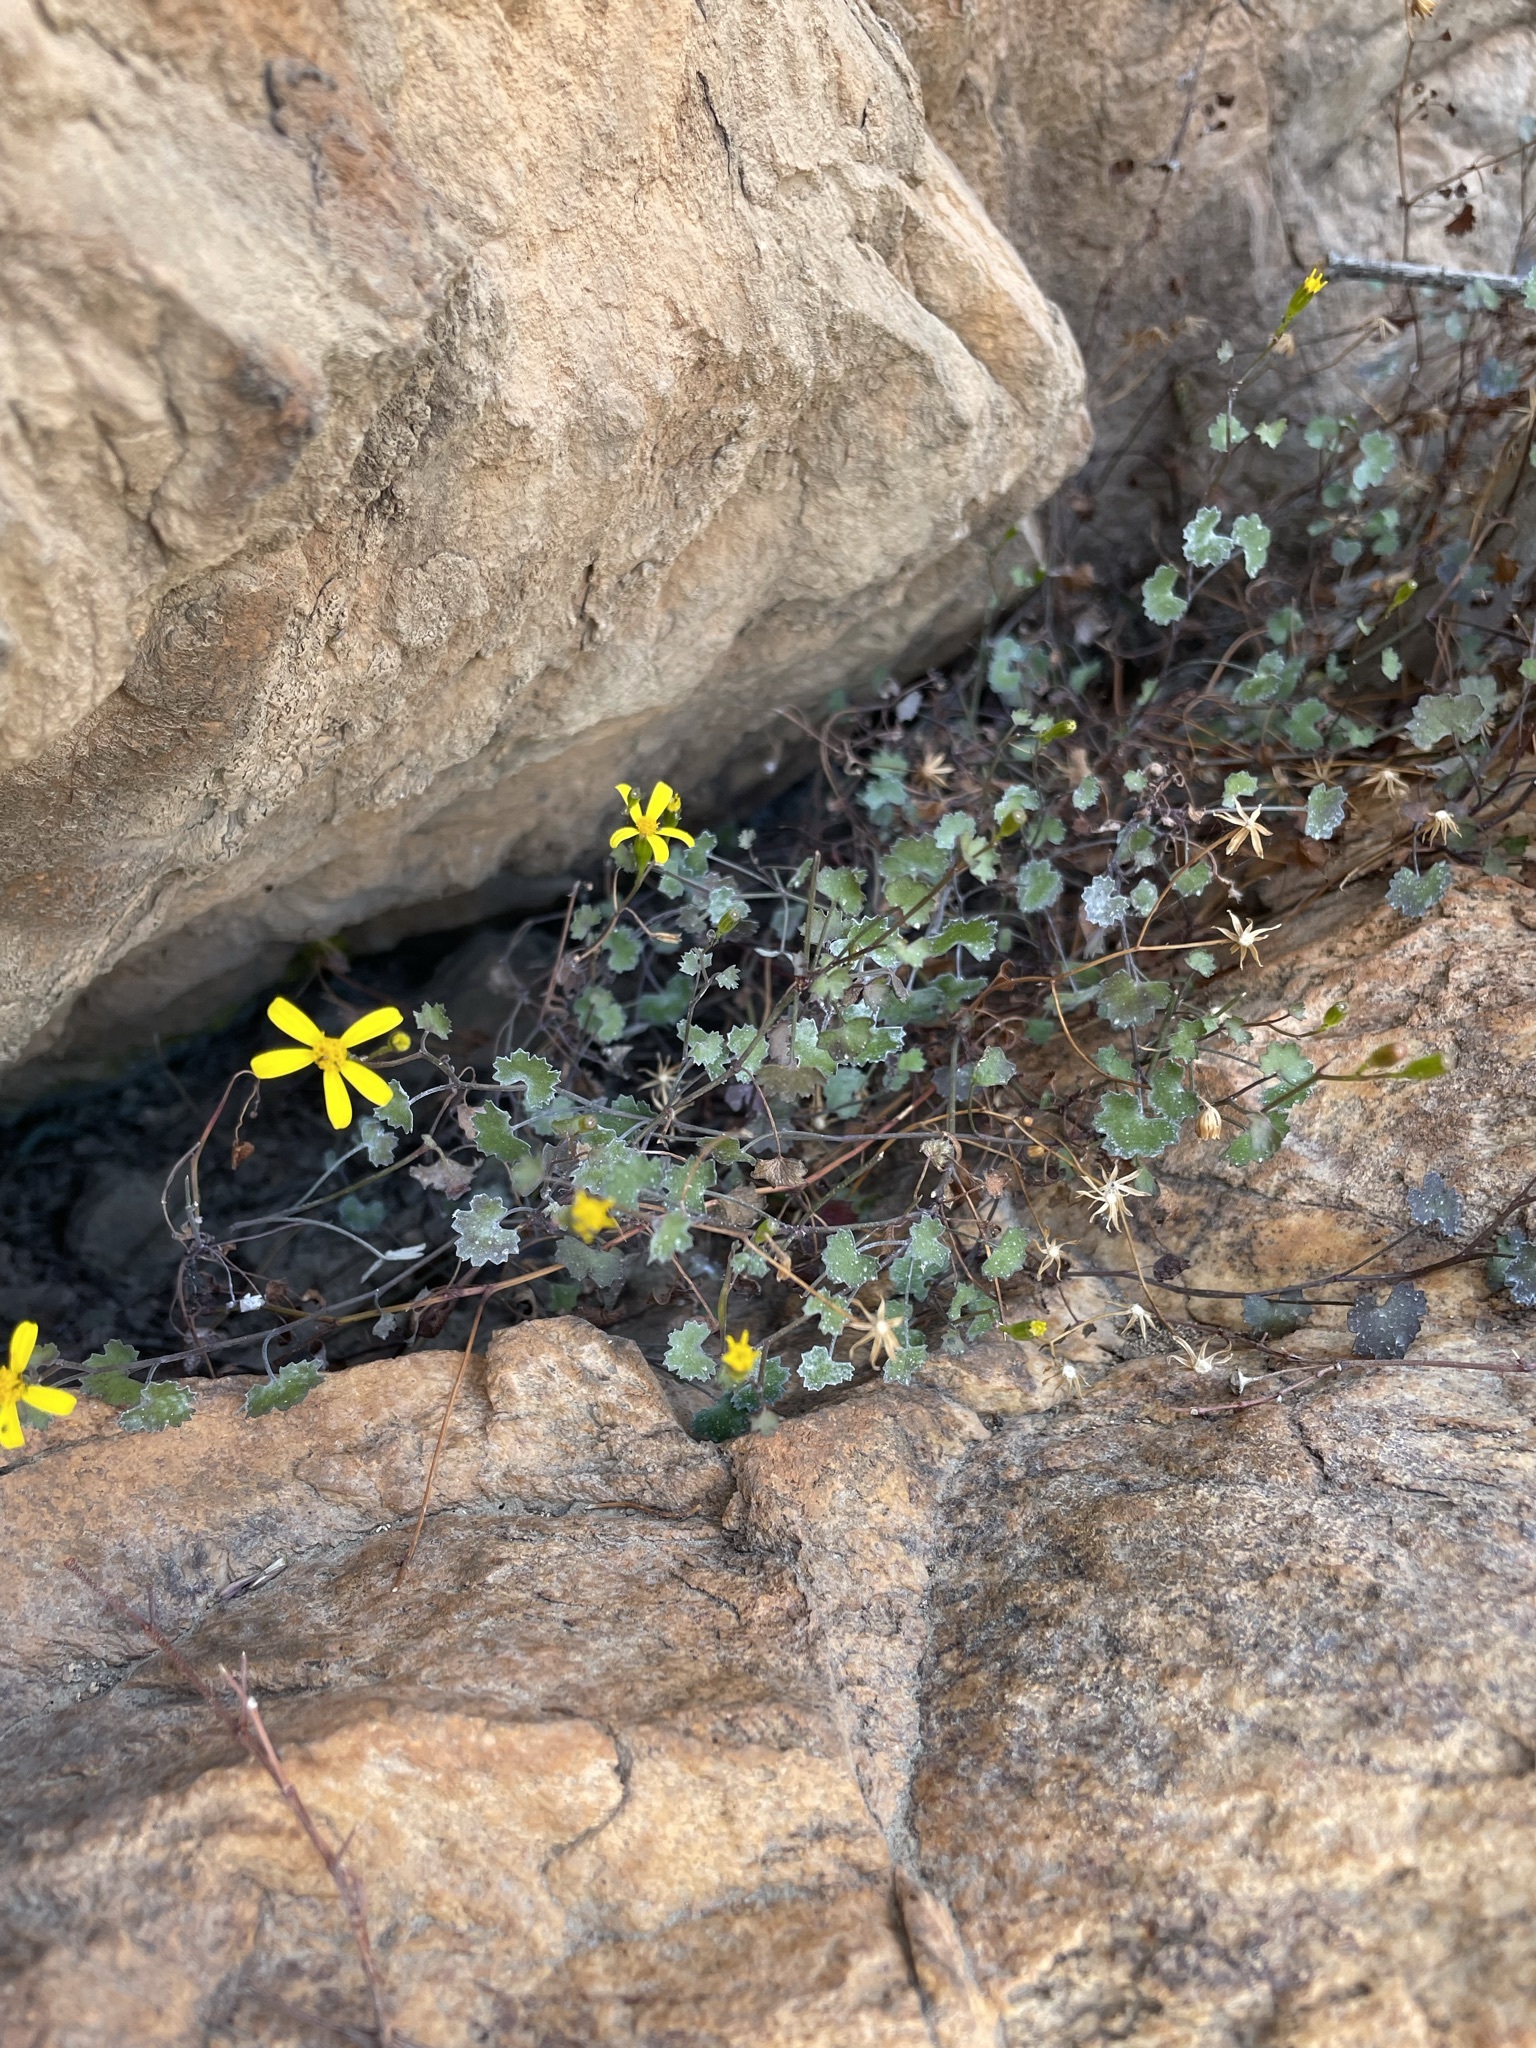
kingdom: Plantae
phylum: Tracheophyta
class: Magnoliopsida
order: Asterales
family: Asteraceae
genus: Cineraria
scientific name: Cineraria saxifraga
